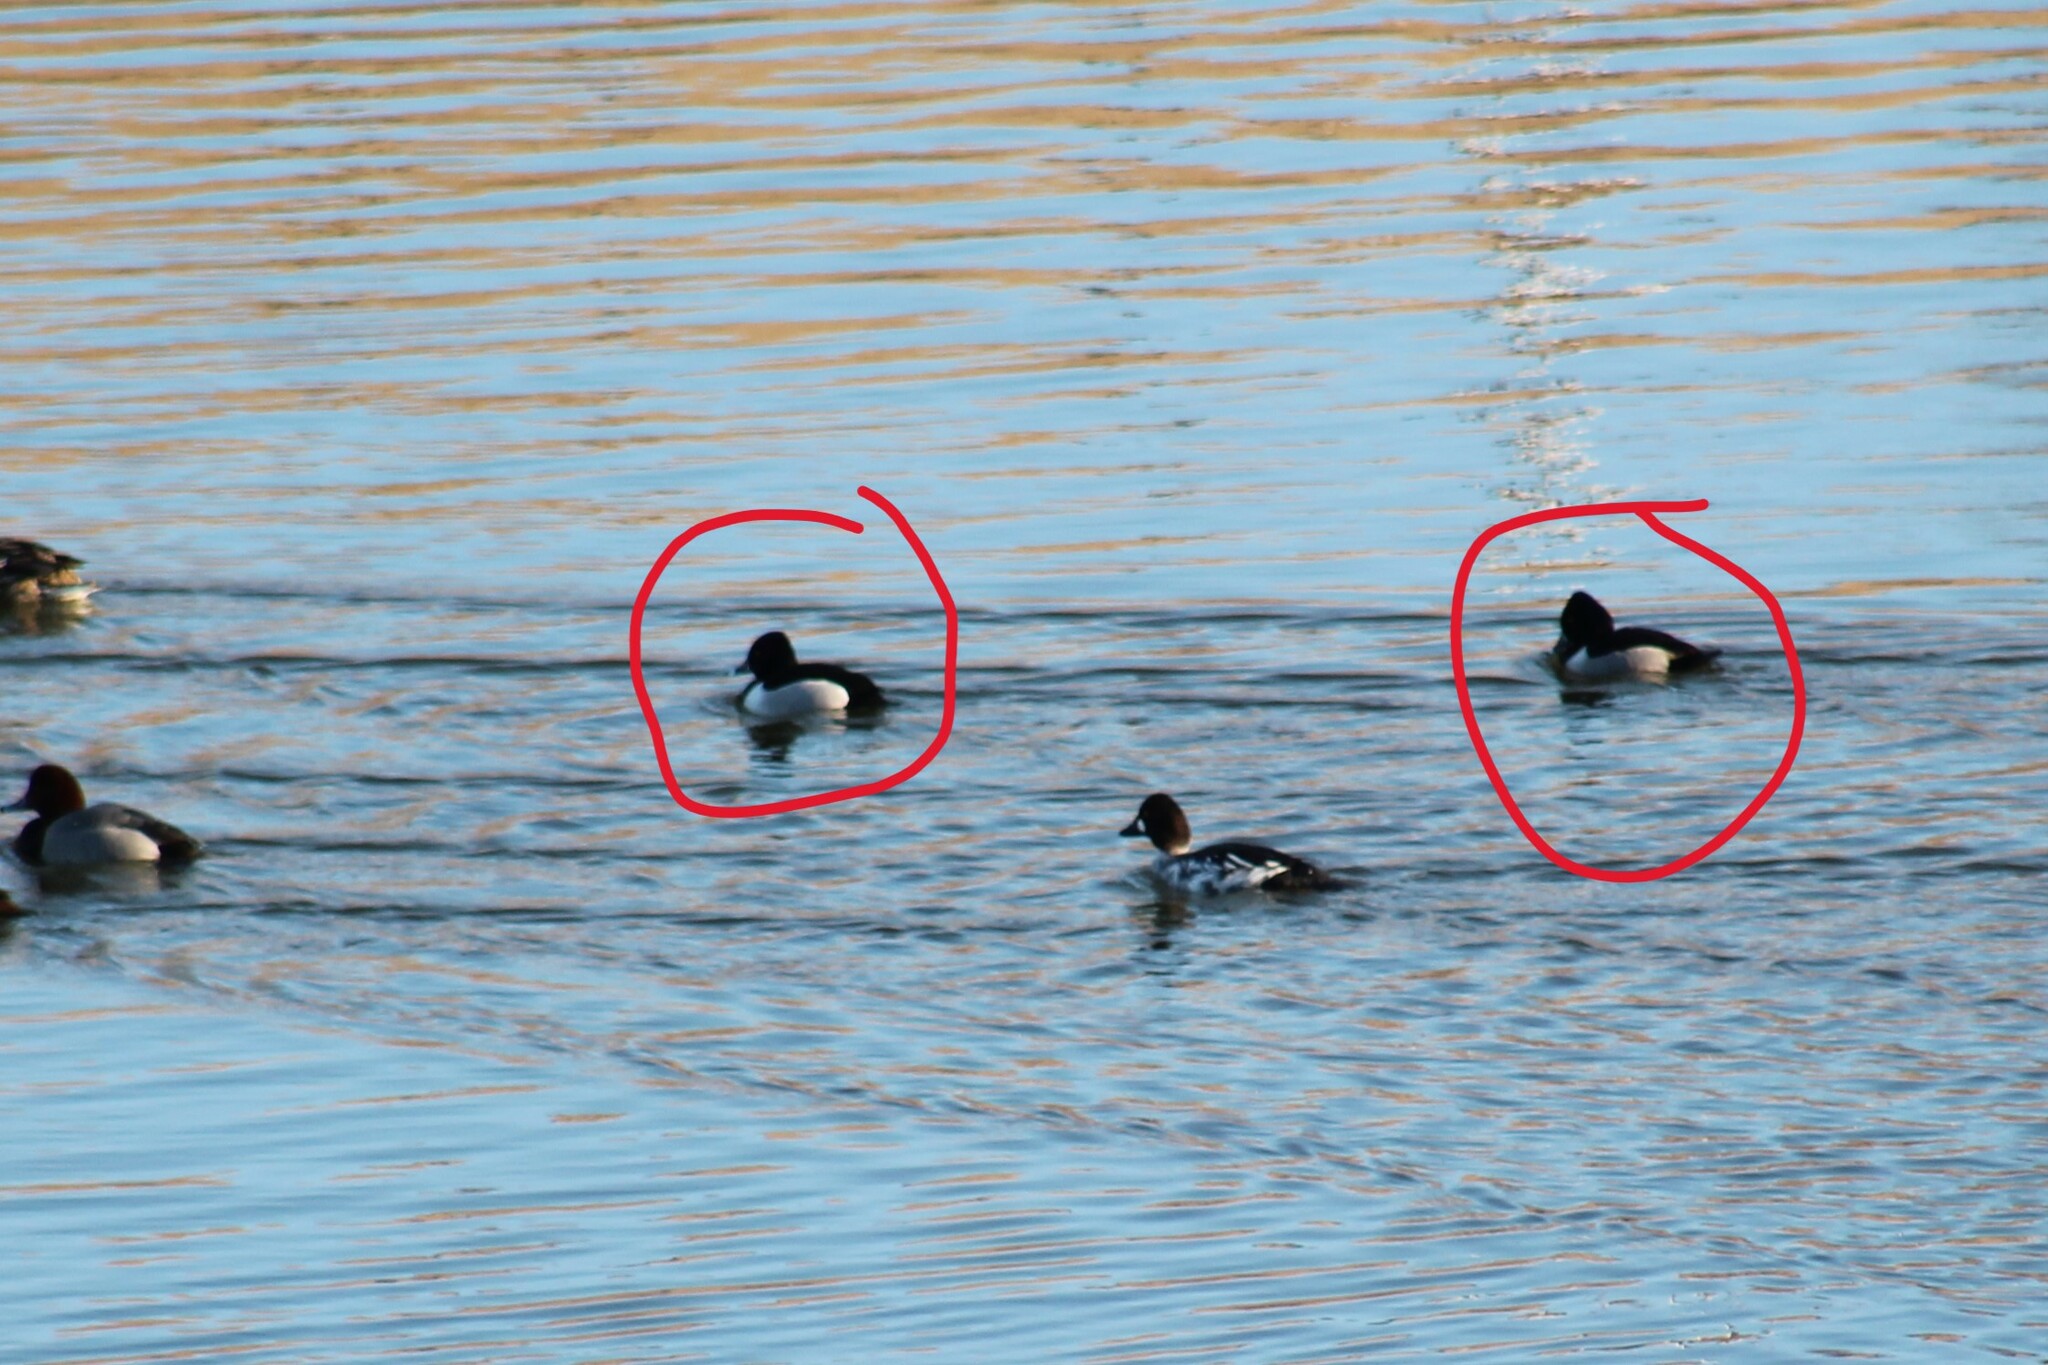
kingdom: Animalia
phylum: Chordata
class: Aves
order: Anseriformes
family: Anatidae
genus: Aythya
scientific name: Aythya collaris
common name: Ring-necked duck
